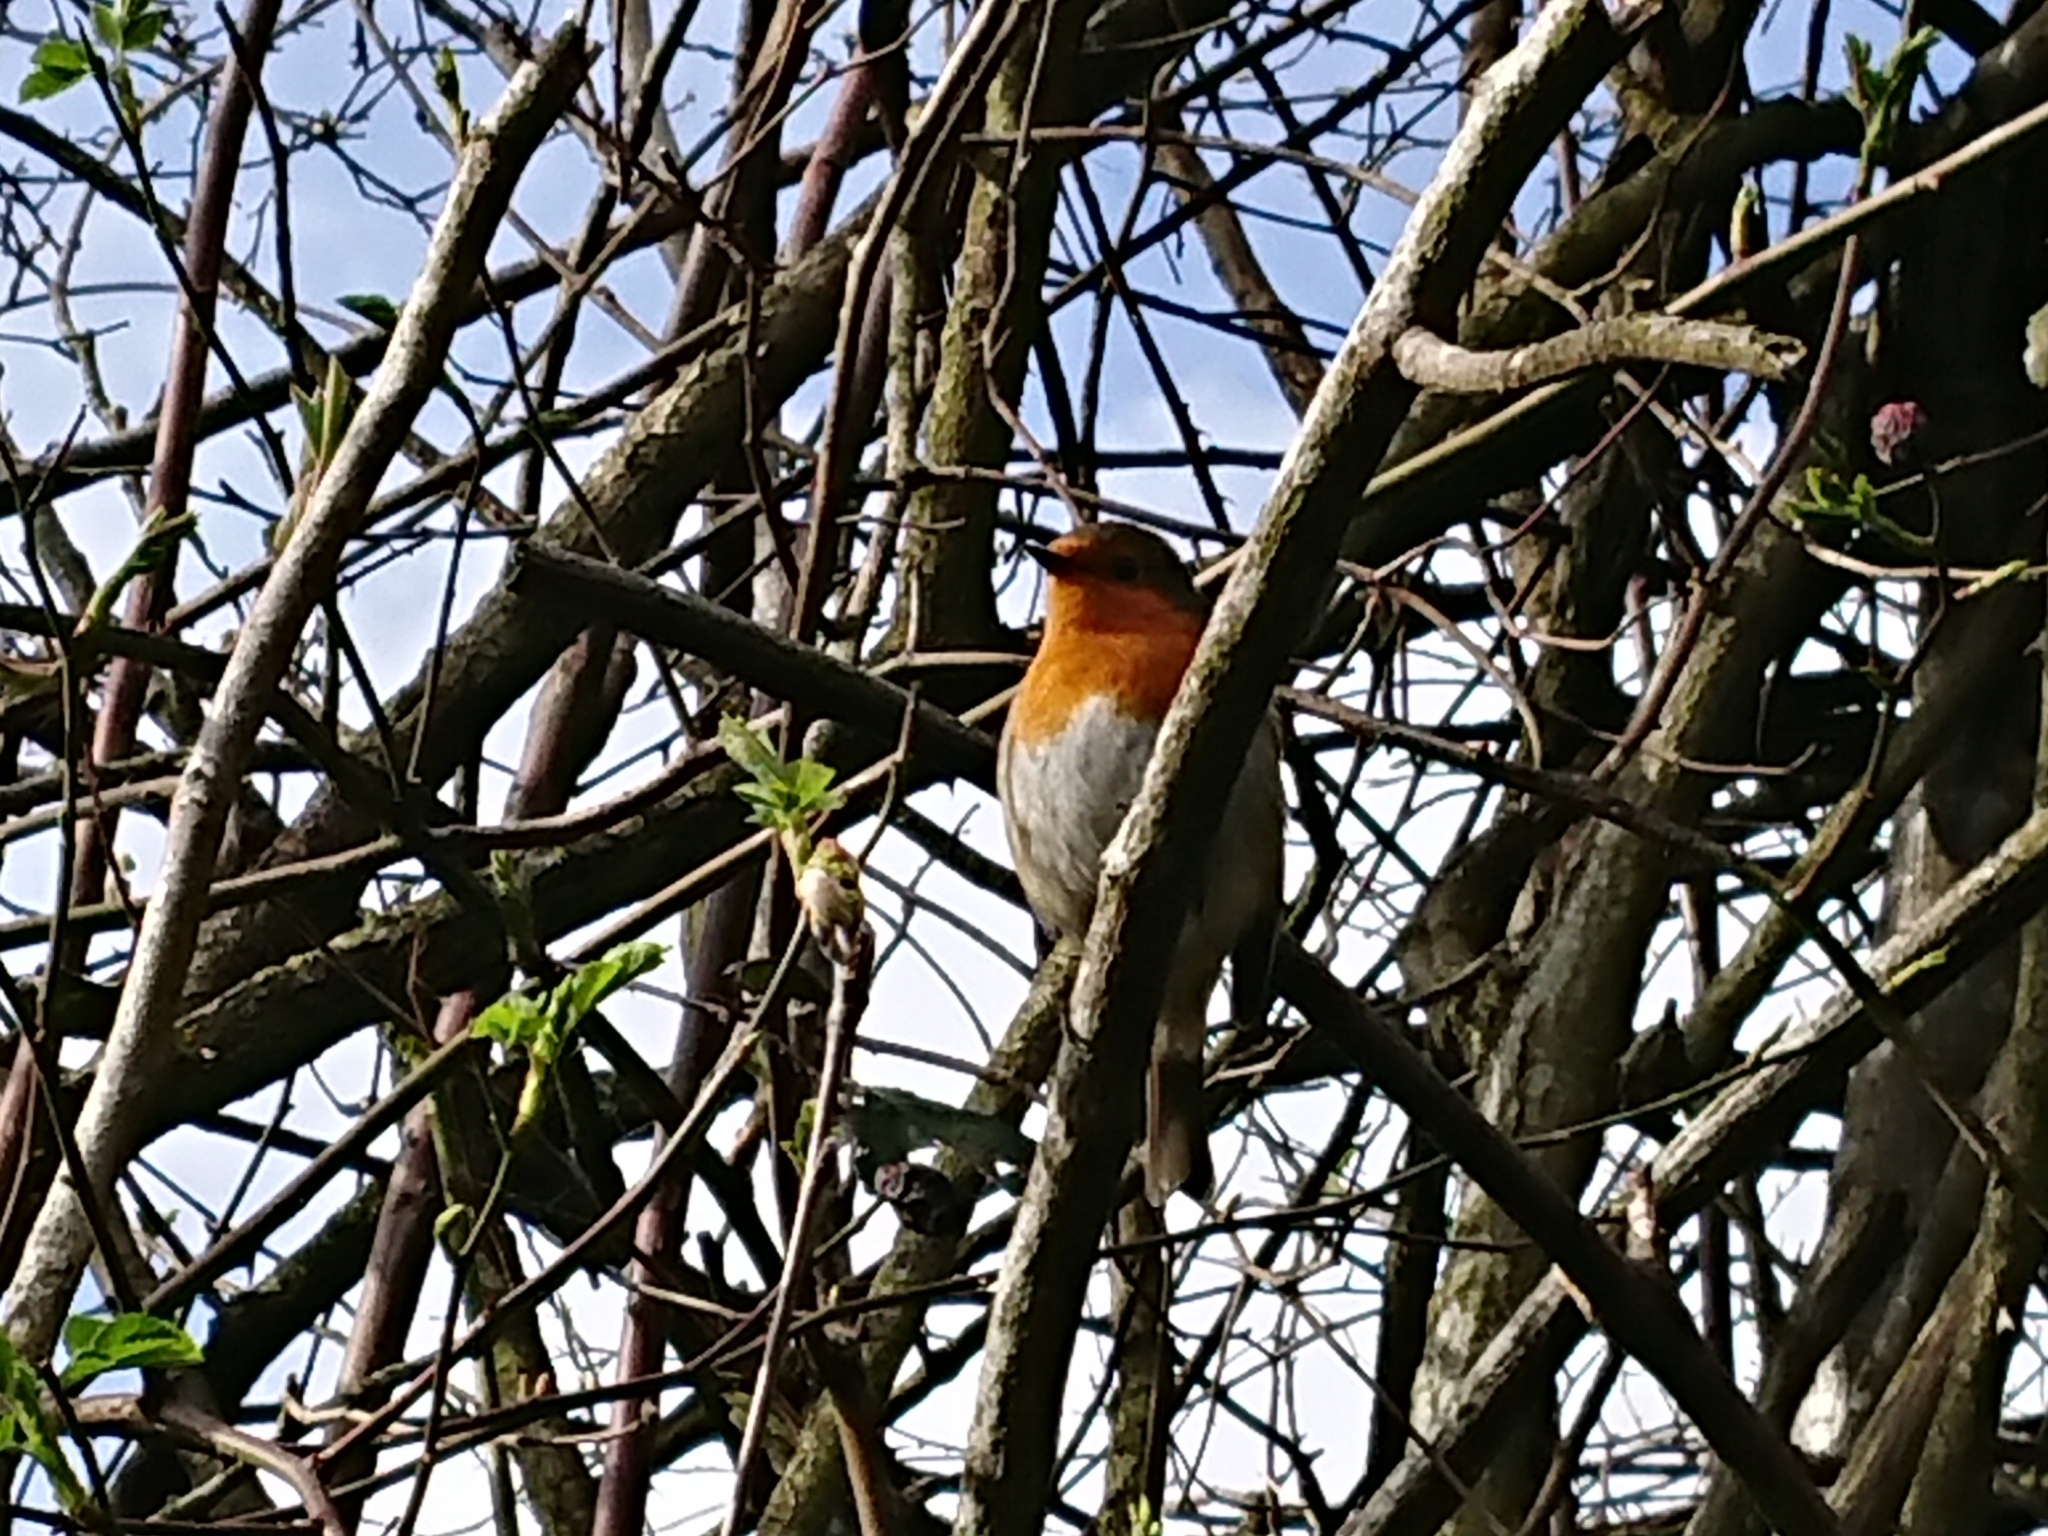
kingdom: Animalia
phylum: Chordata
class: Aves
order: Passeriformes
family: Muscicapidae
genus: Erithacus
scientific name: Erithacus rubecula
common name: European robin
